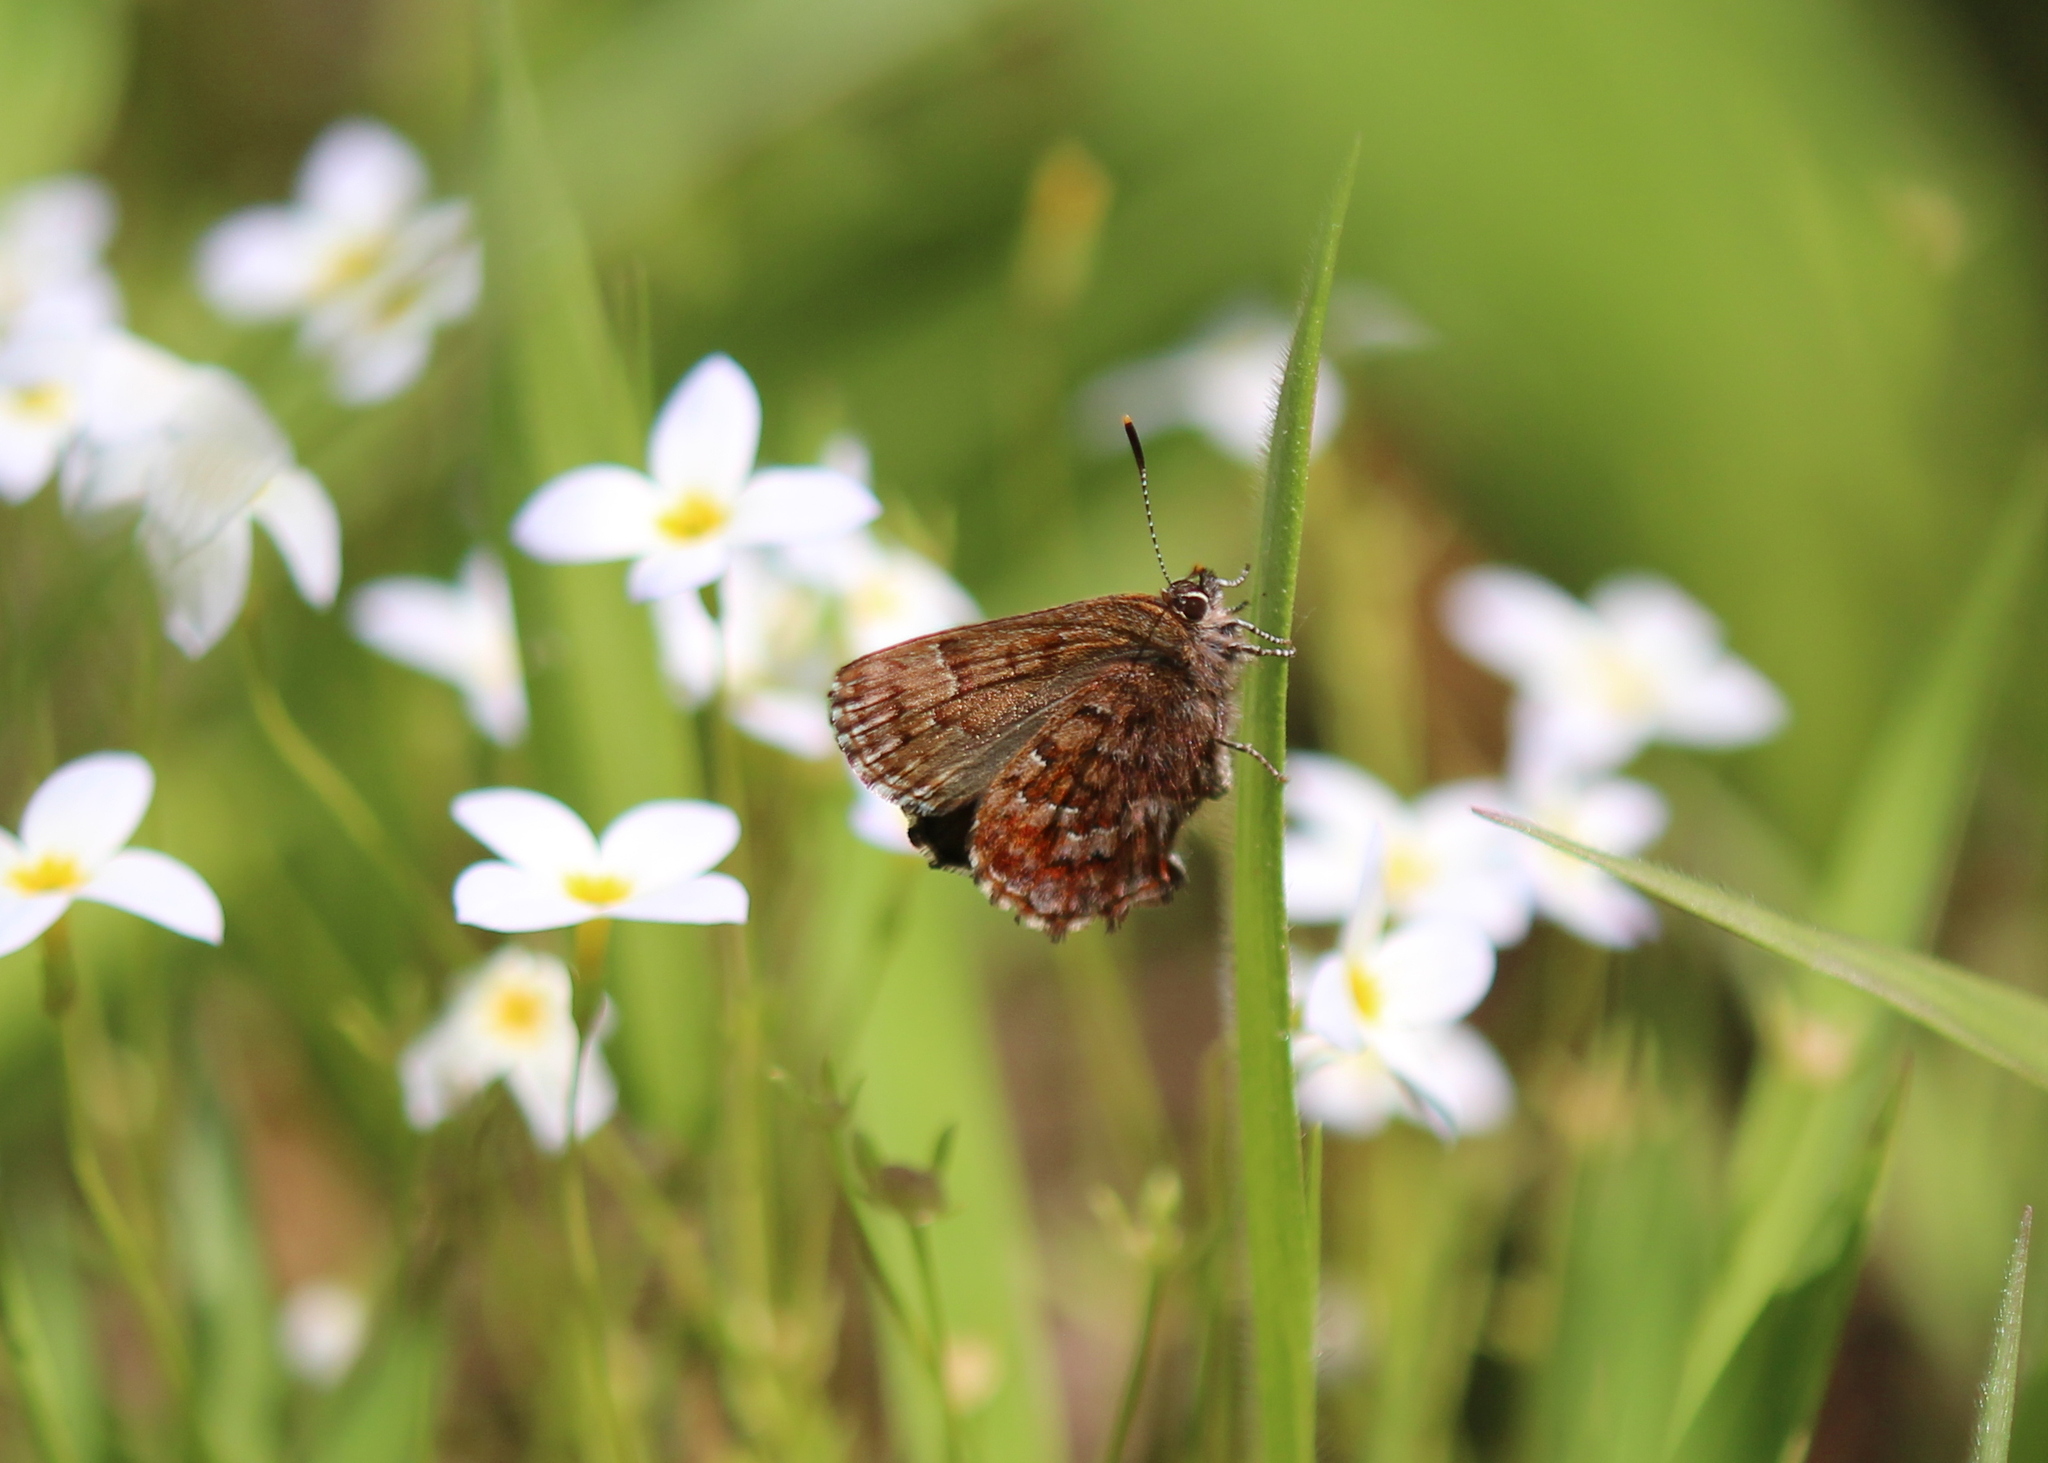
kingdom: Animalia
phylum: Arthropoda
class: Insecta
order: Lepidoptera
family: Lycaenidae
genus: Incisalia
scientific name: Incisalia niphon
